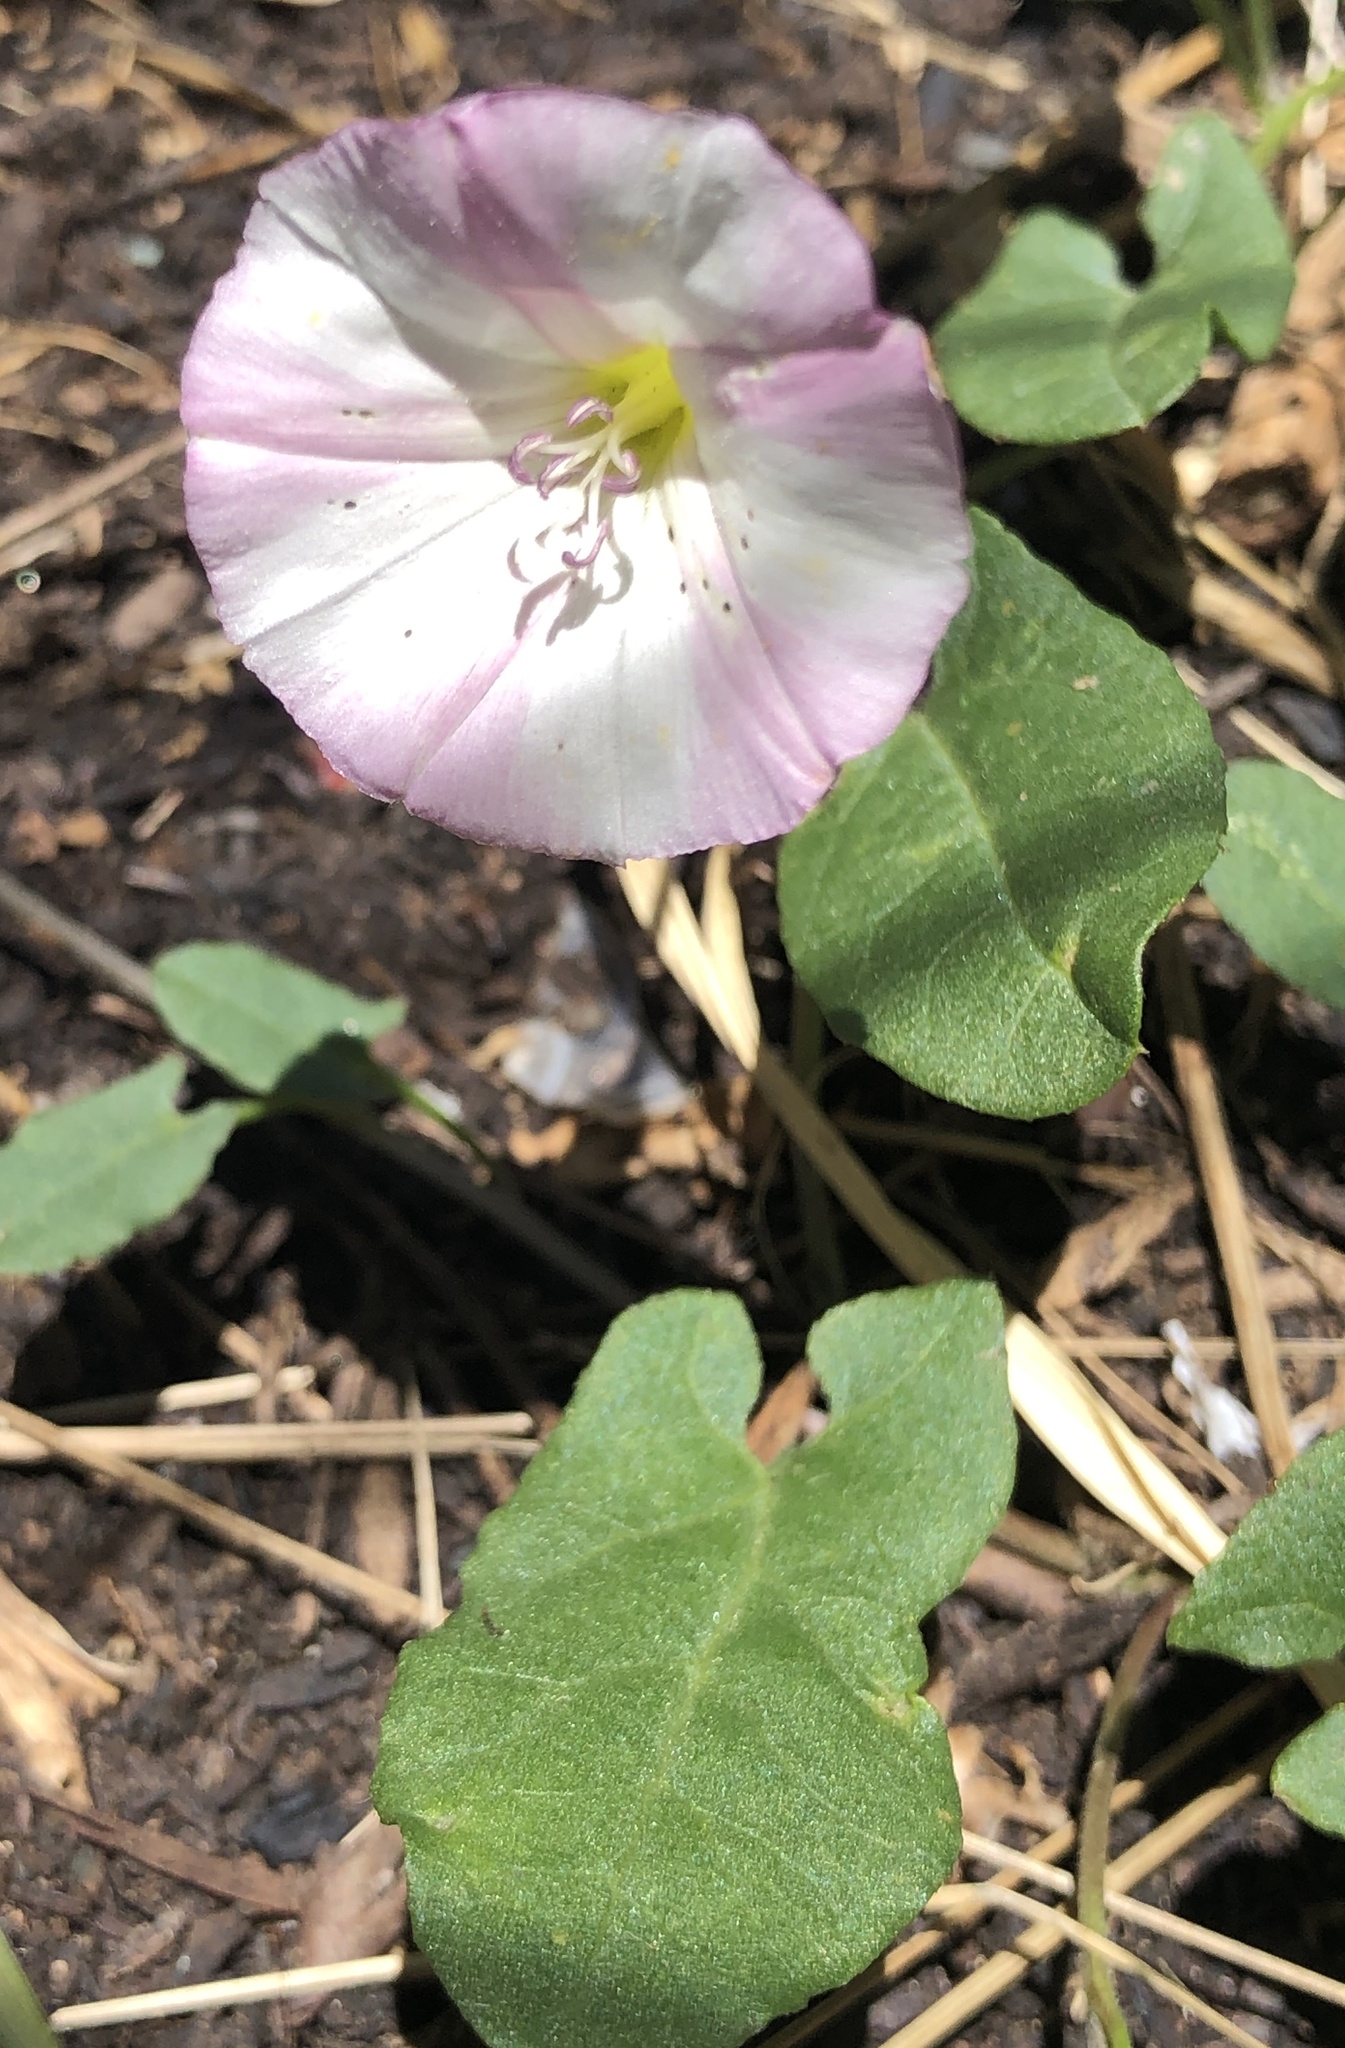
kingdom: Plantae
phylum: Tracheophyta
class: Magnoliopsida
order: Solanales
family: Convolvulaceae
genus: Convolvulus
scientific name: Convolvulus arvensis
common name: Field bindweed
